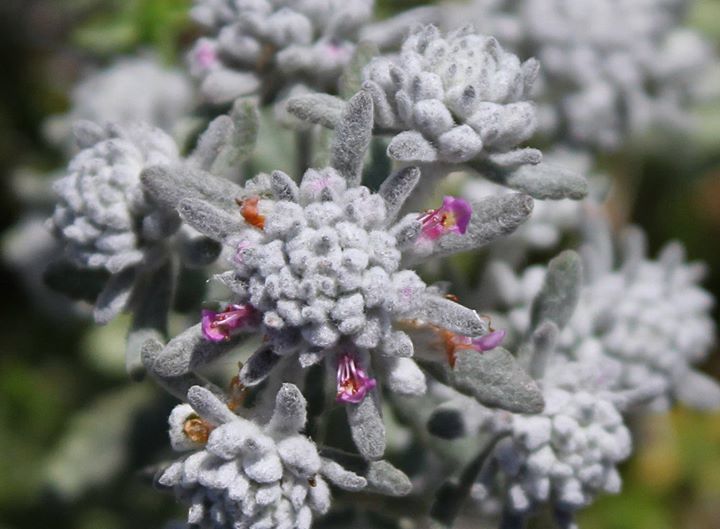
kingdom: Plantae
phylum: Tracheophyta
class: Magnoliopsida
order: Lamiales
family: Lamiaceae
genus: Teucrium
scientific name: Teucrium capitatum
